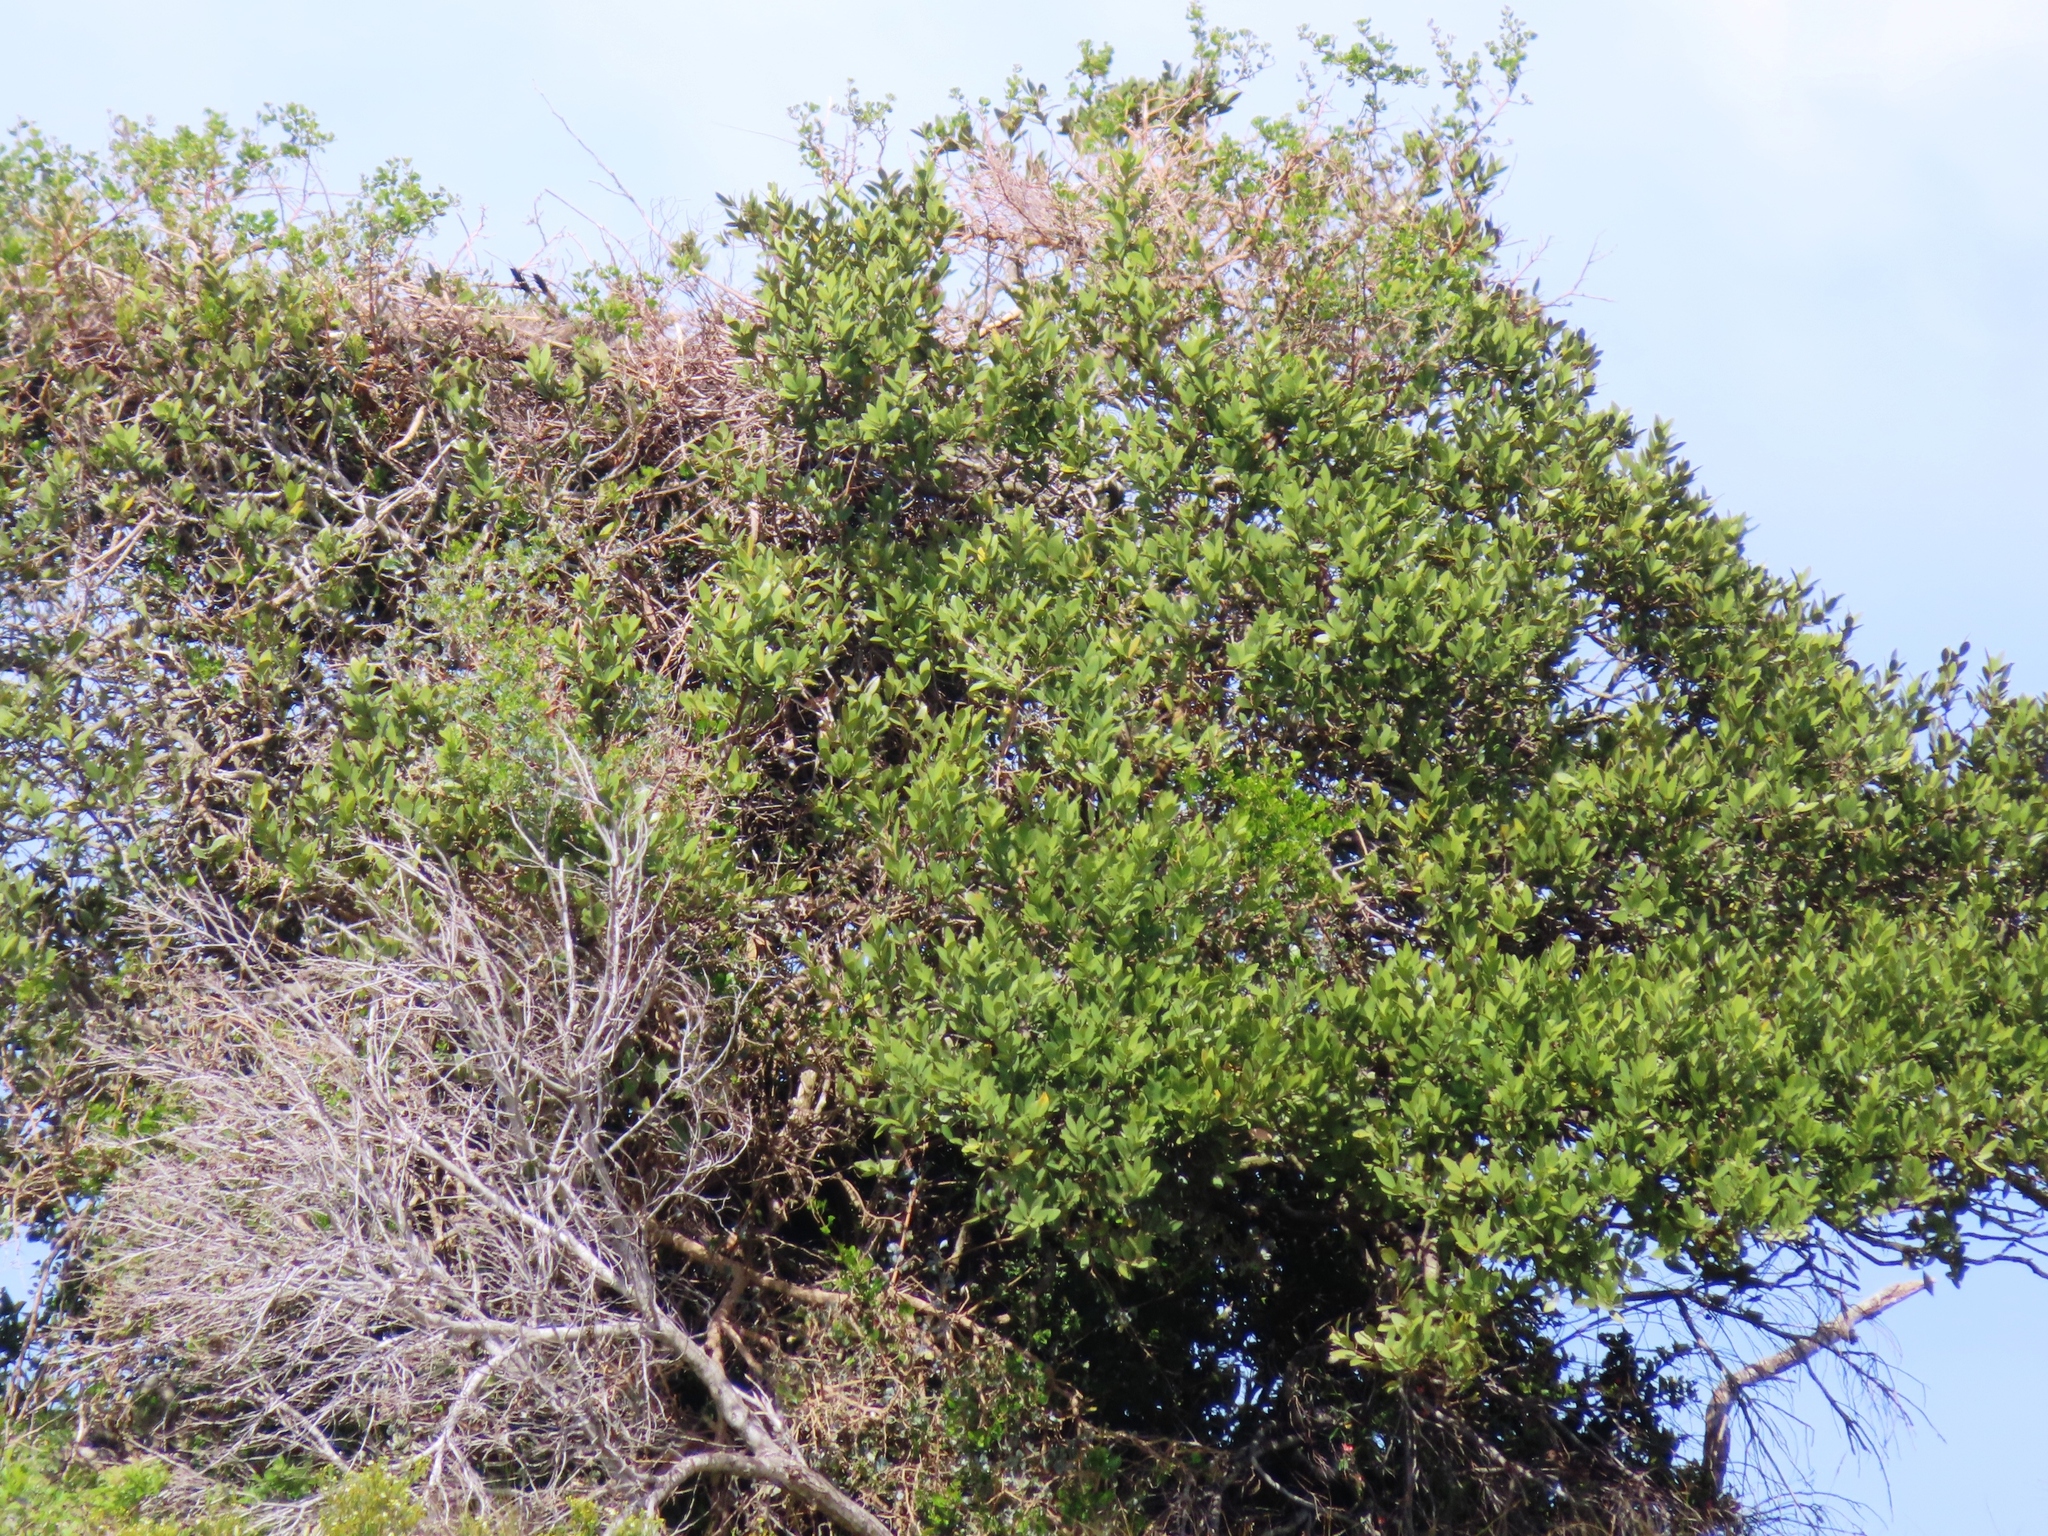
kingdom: Animalia
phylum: Chordata
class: Aves
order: Accipitriformes
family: Sagittariidae
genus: Sagittarius
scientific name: Sagittarius serpentarius
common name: Secretarybird
